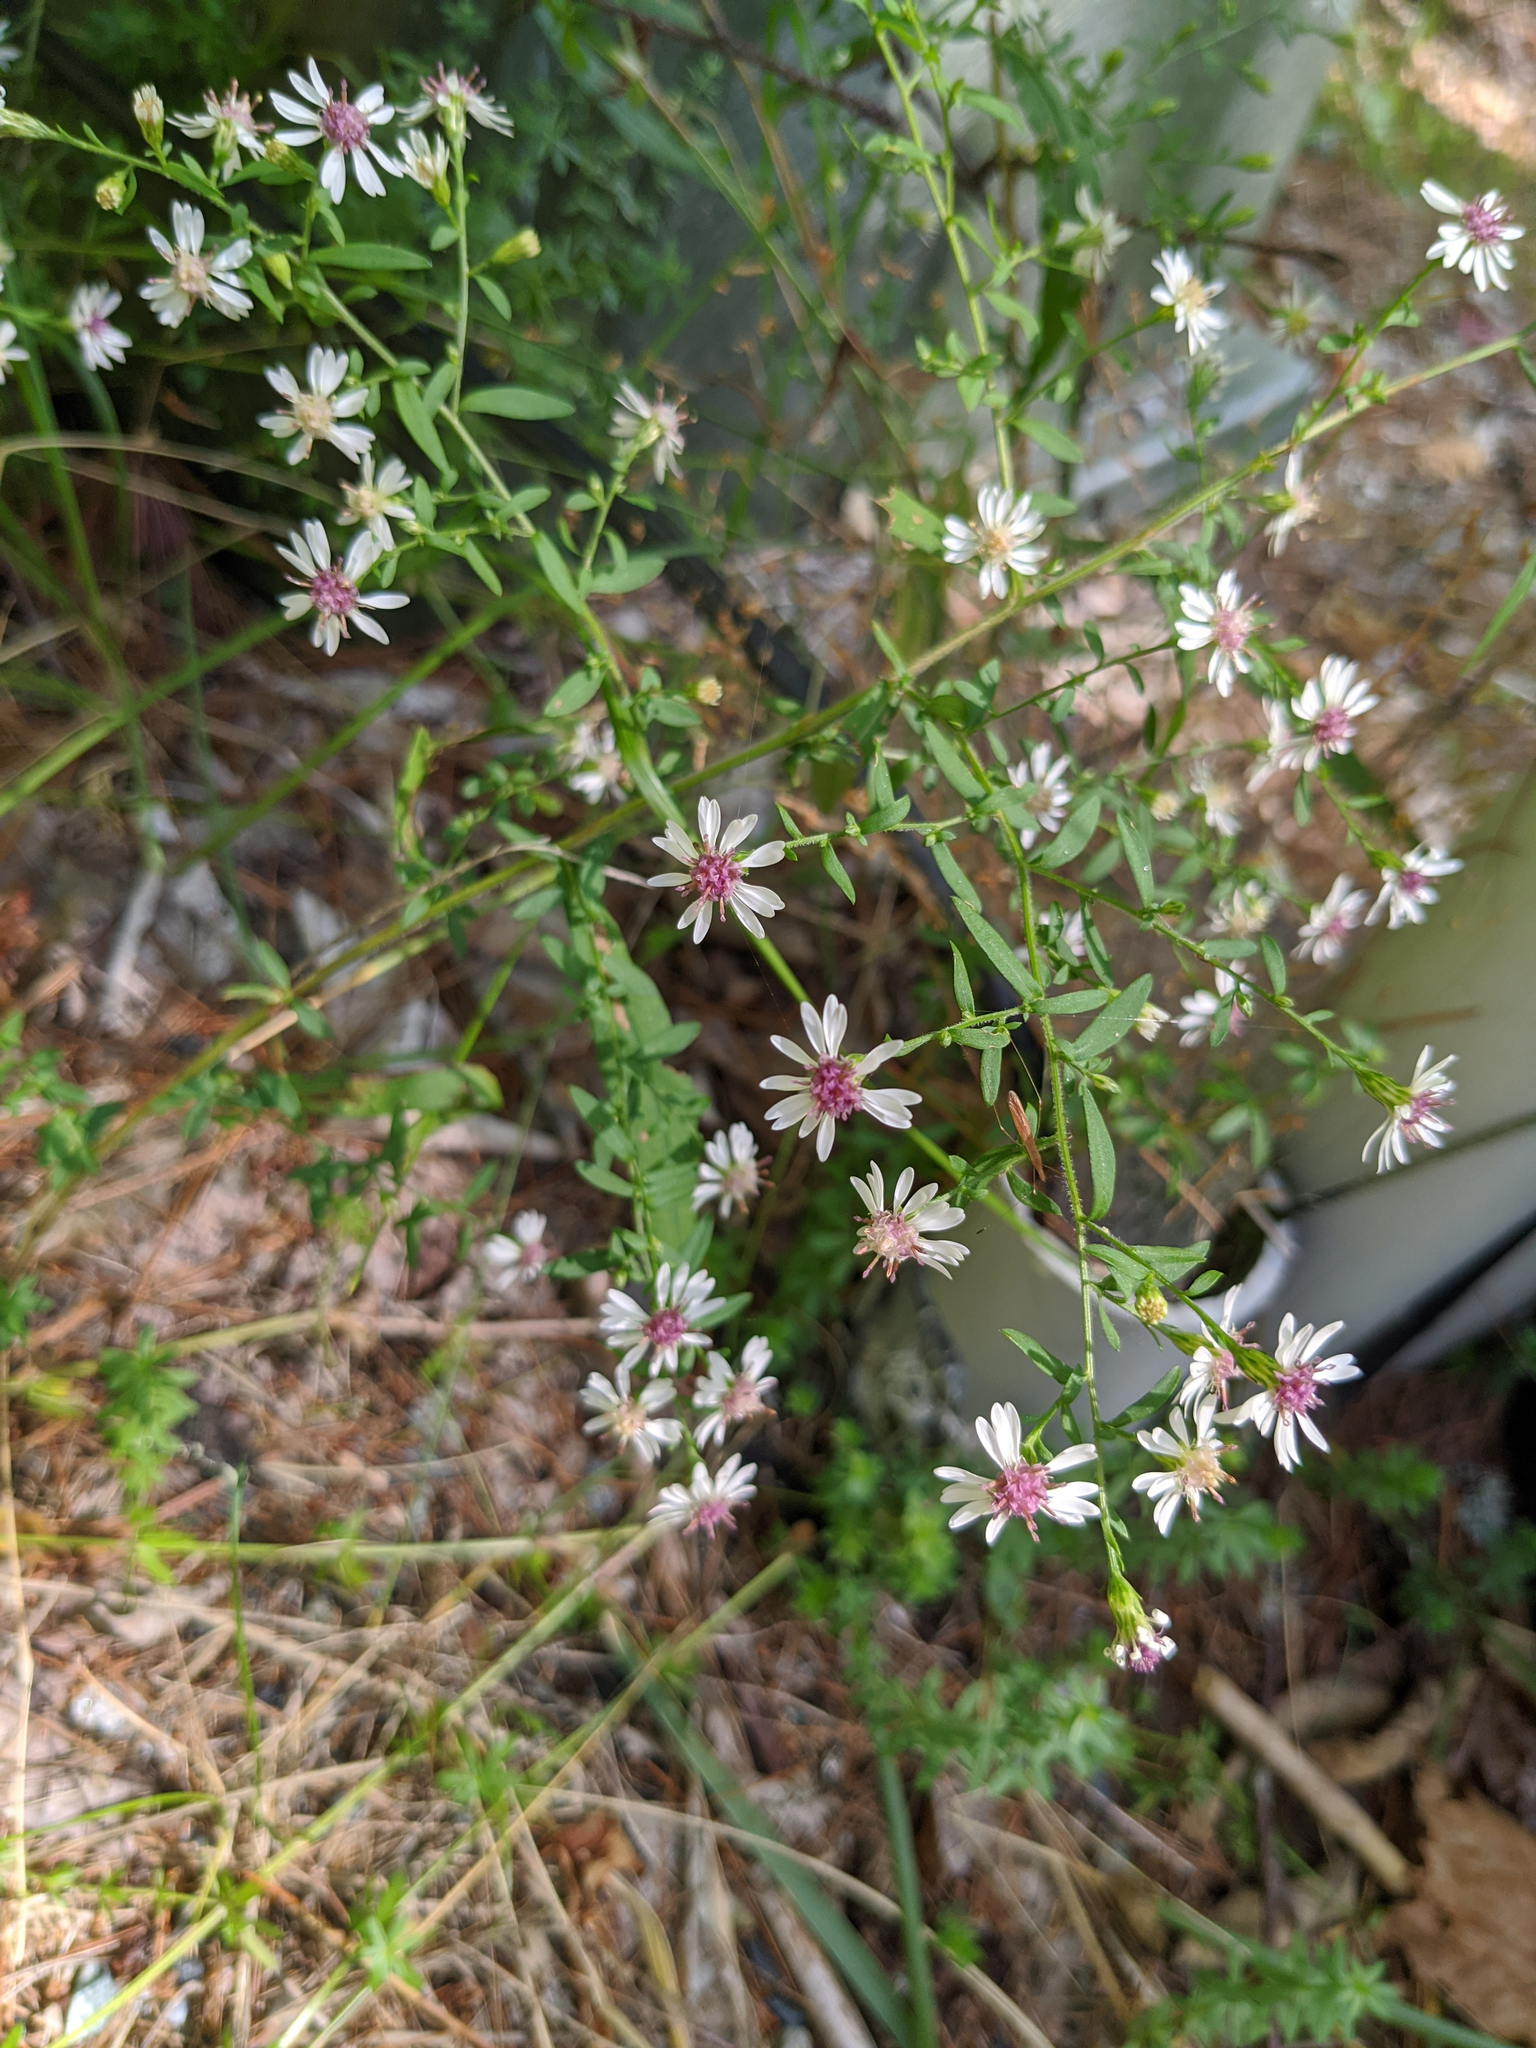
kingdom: Plantae
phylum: Tracheophyta
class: Magnoliopsida
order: Asterales
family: Asteraceae
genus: Symphyotrichum
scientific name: Symphyotrichum lateriflorum
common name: Calico aster
